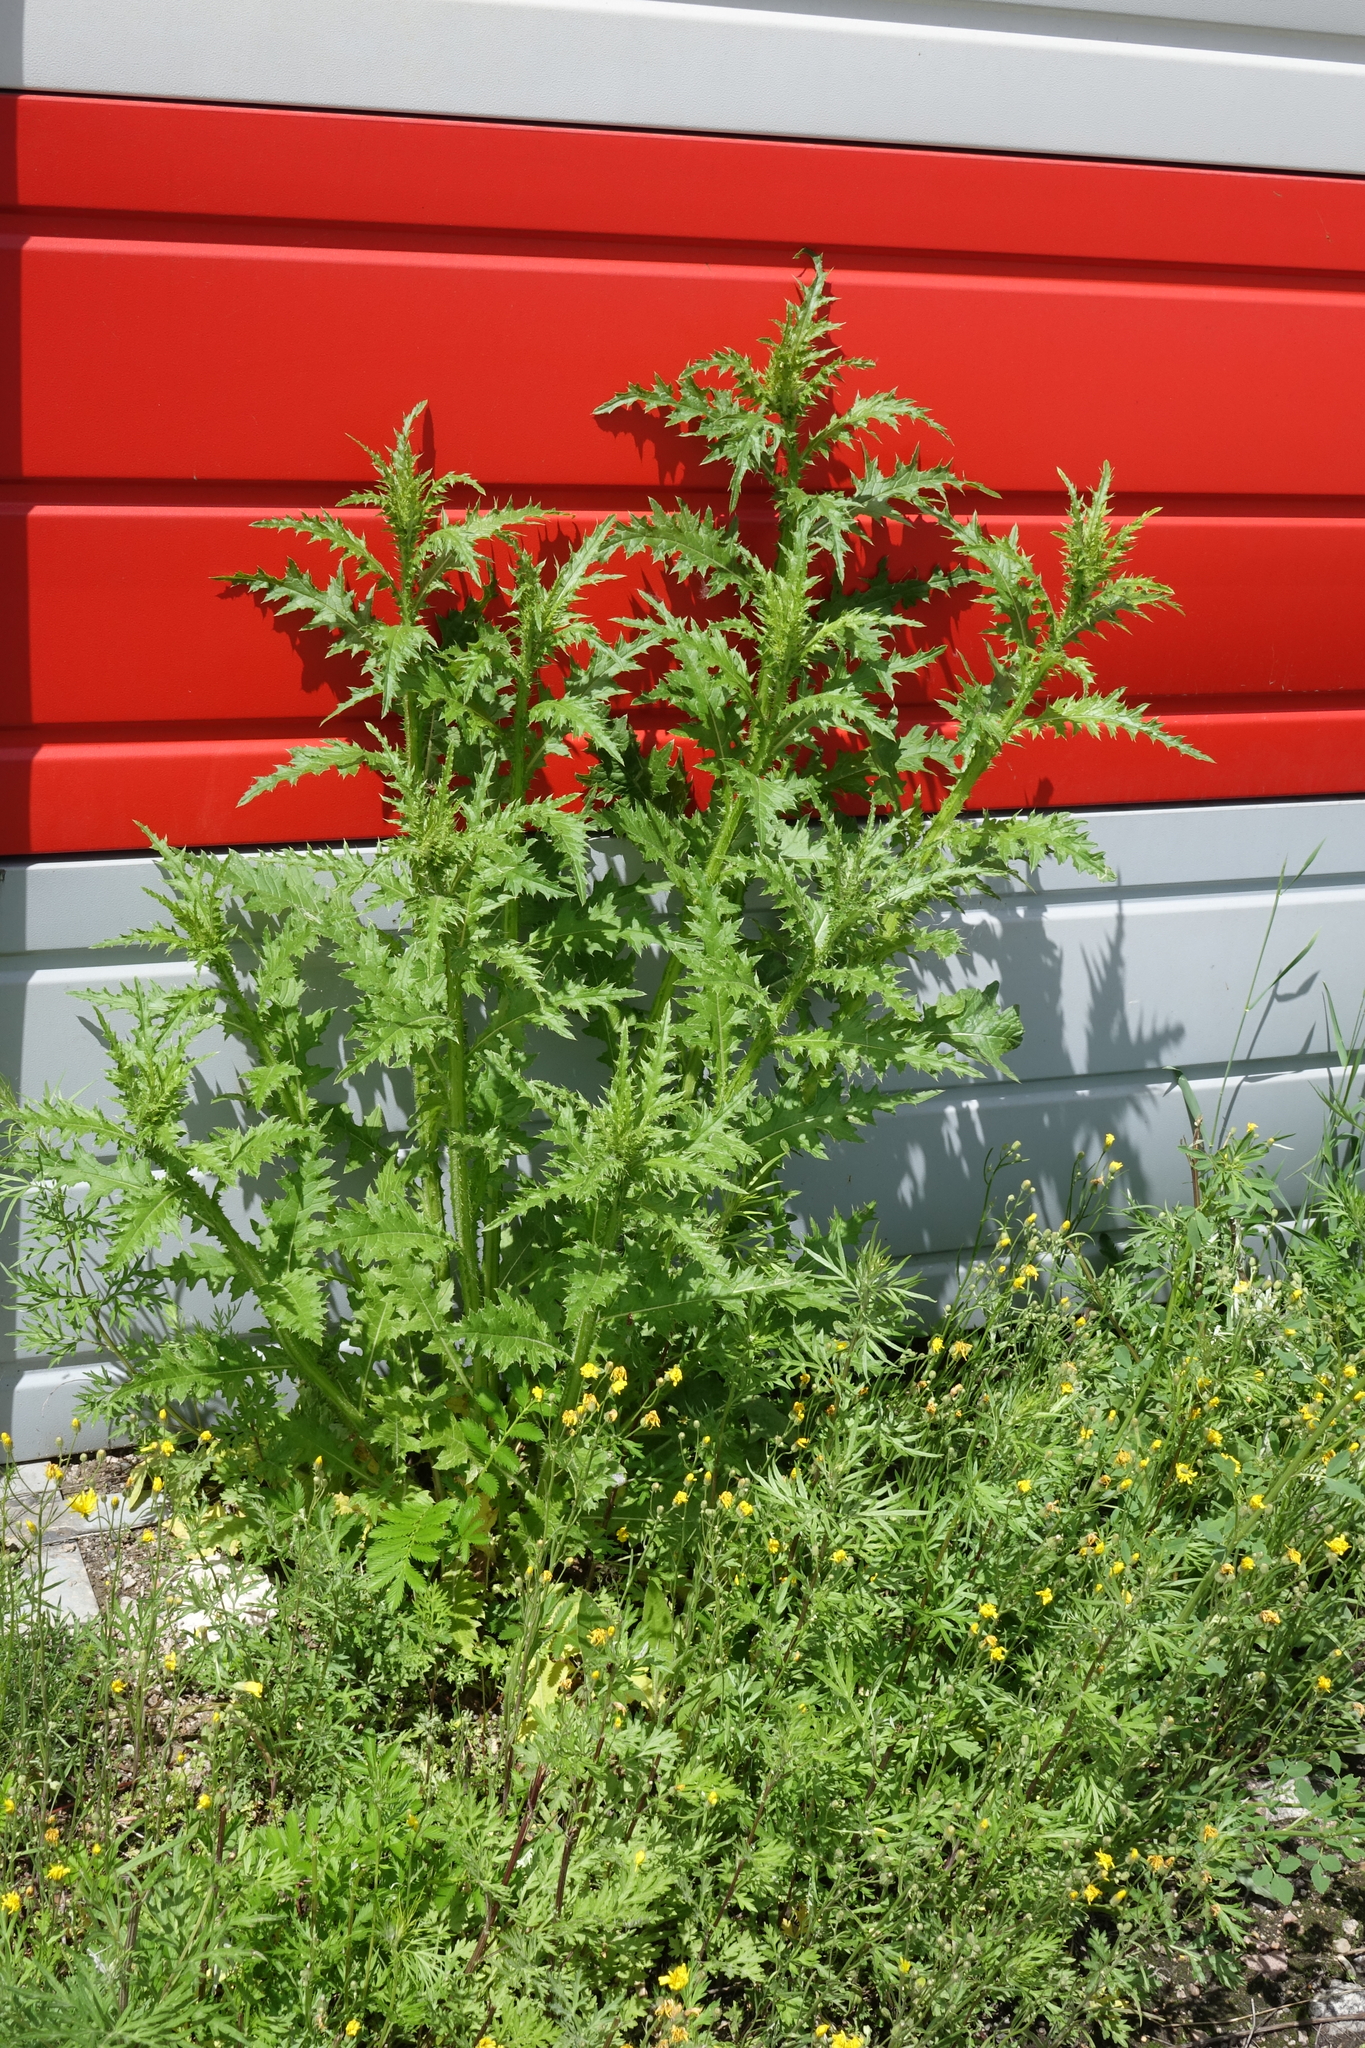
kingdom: Plantae
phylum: Tracheophyta
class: Magnoliopsida
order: Asterales
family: Asteraceae
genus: Carduus
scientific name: Carduus crispus
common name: Welted thistle
